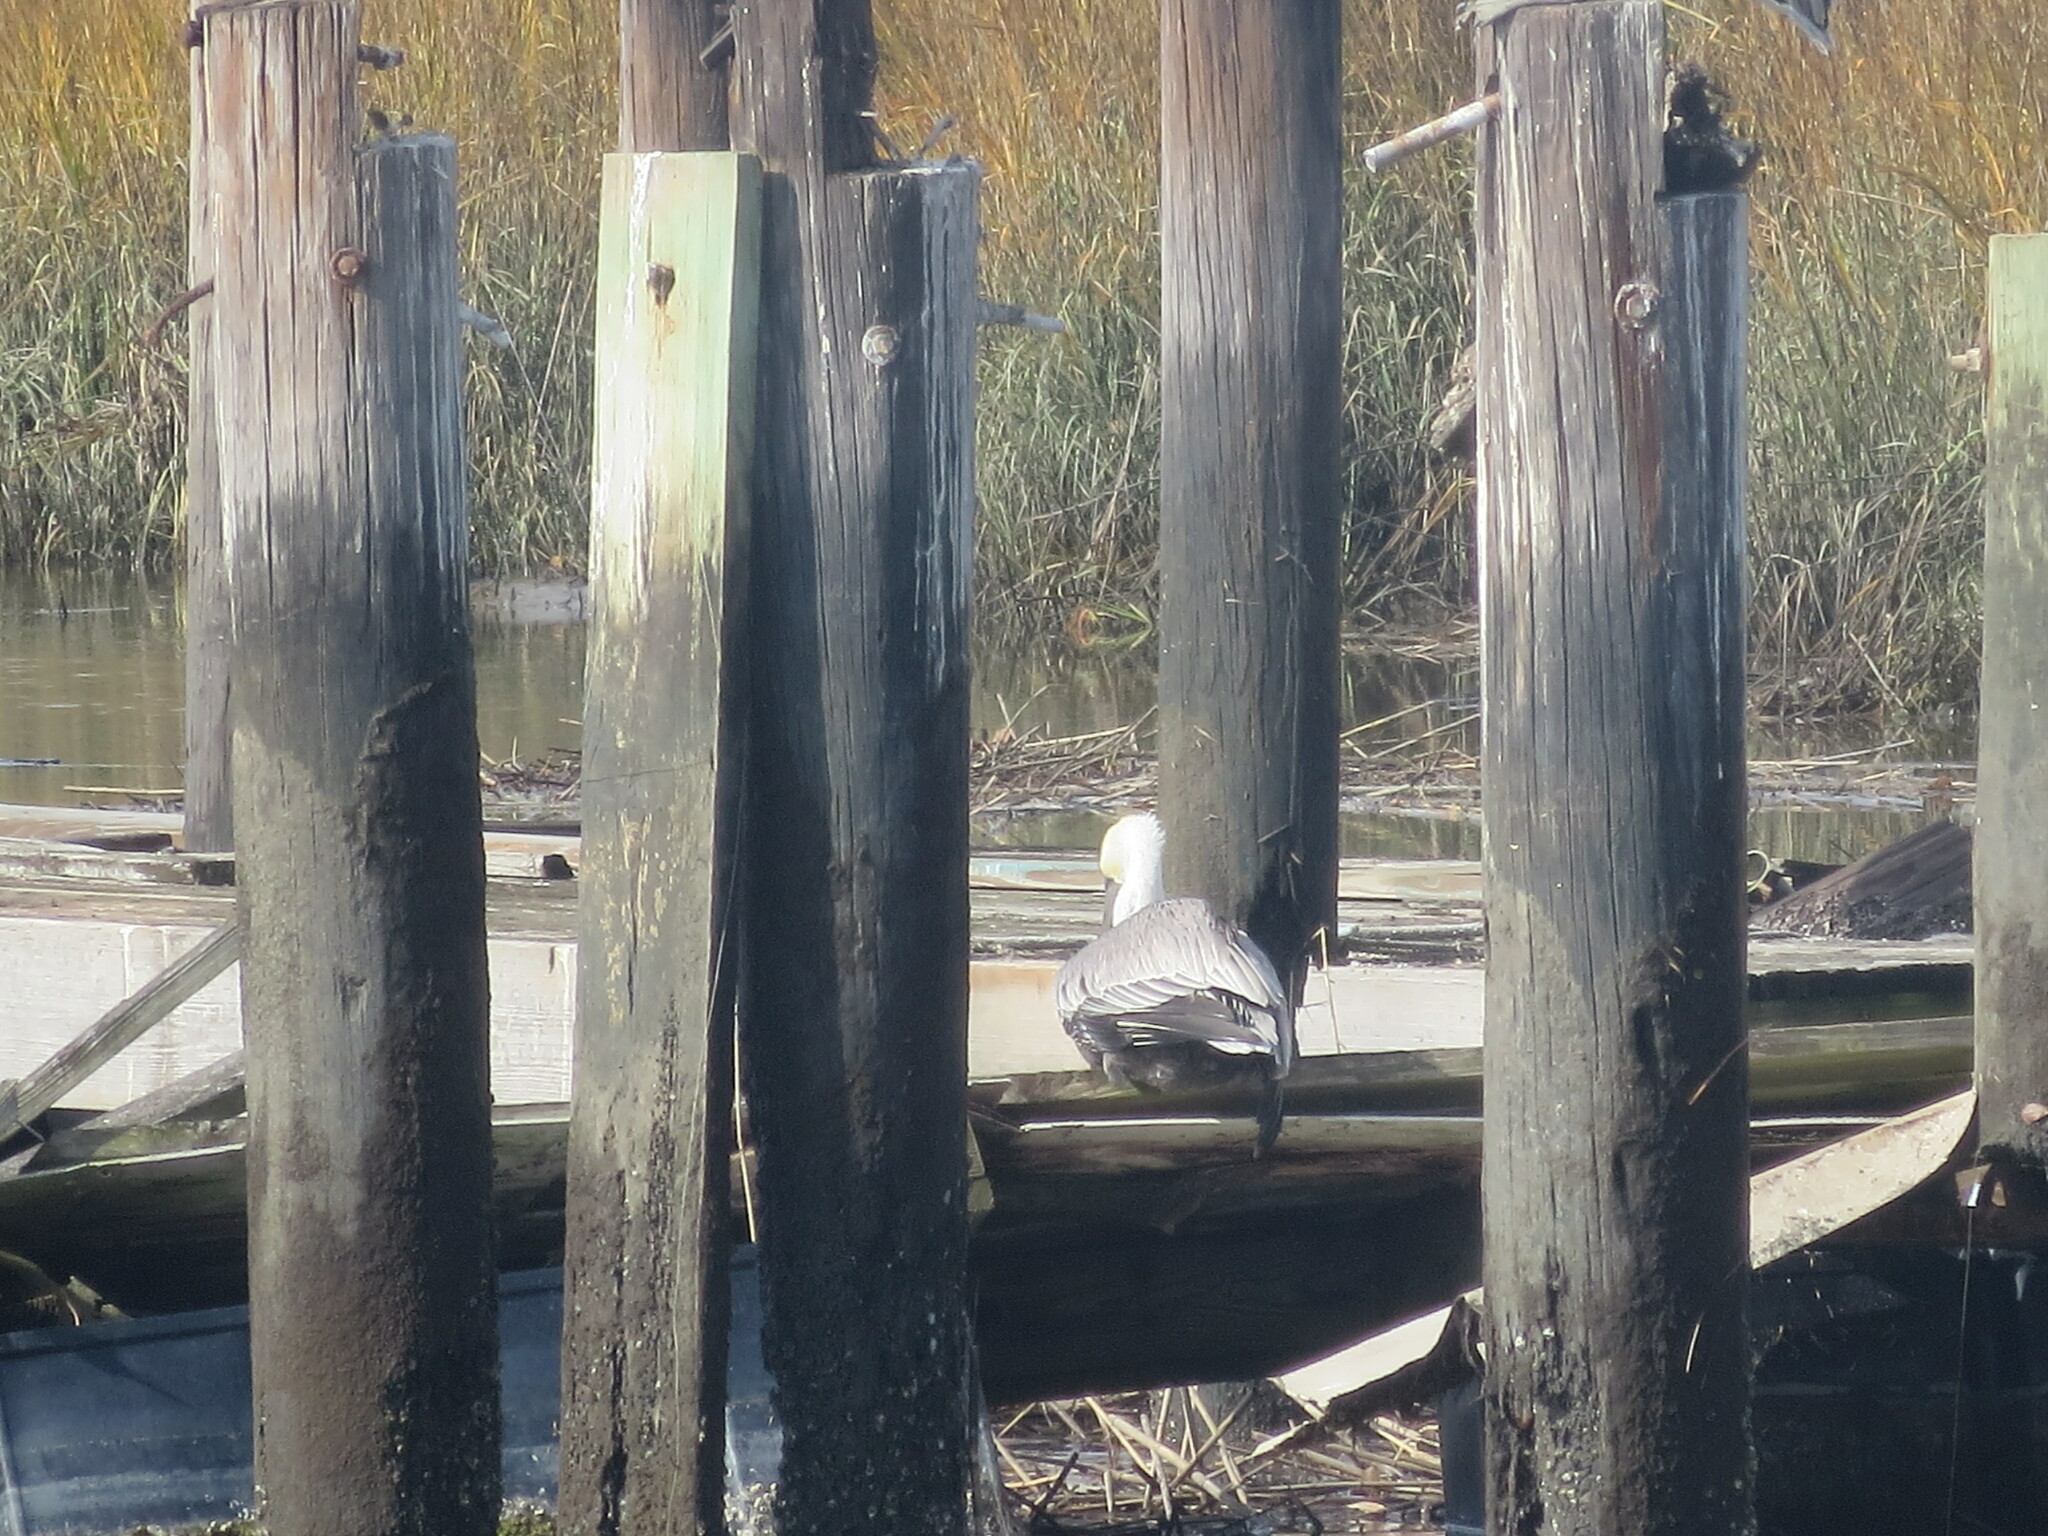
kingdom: Animalia
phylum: Chordata
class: Aves
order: Pelecaniformes
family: Pelecanidae
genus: Pelecanus
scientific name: Pelecanus occidentalis
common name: Brown pelican
